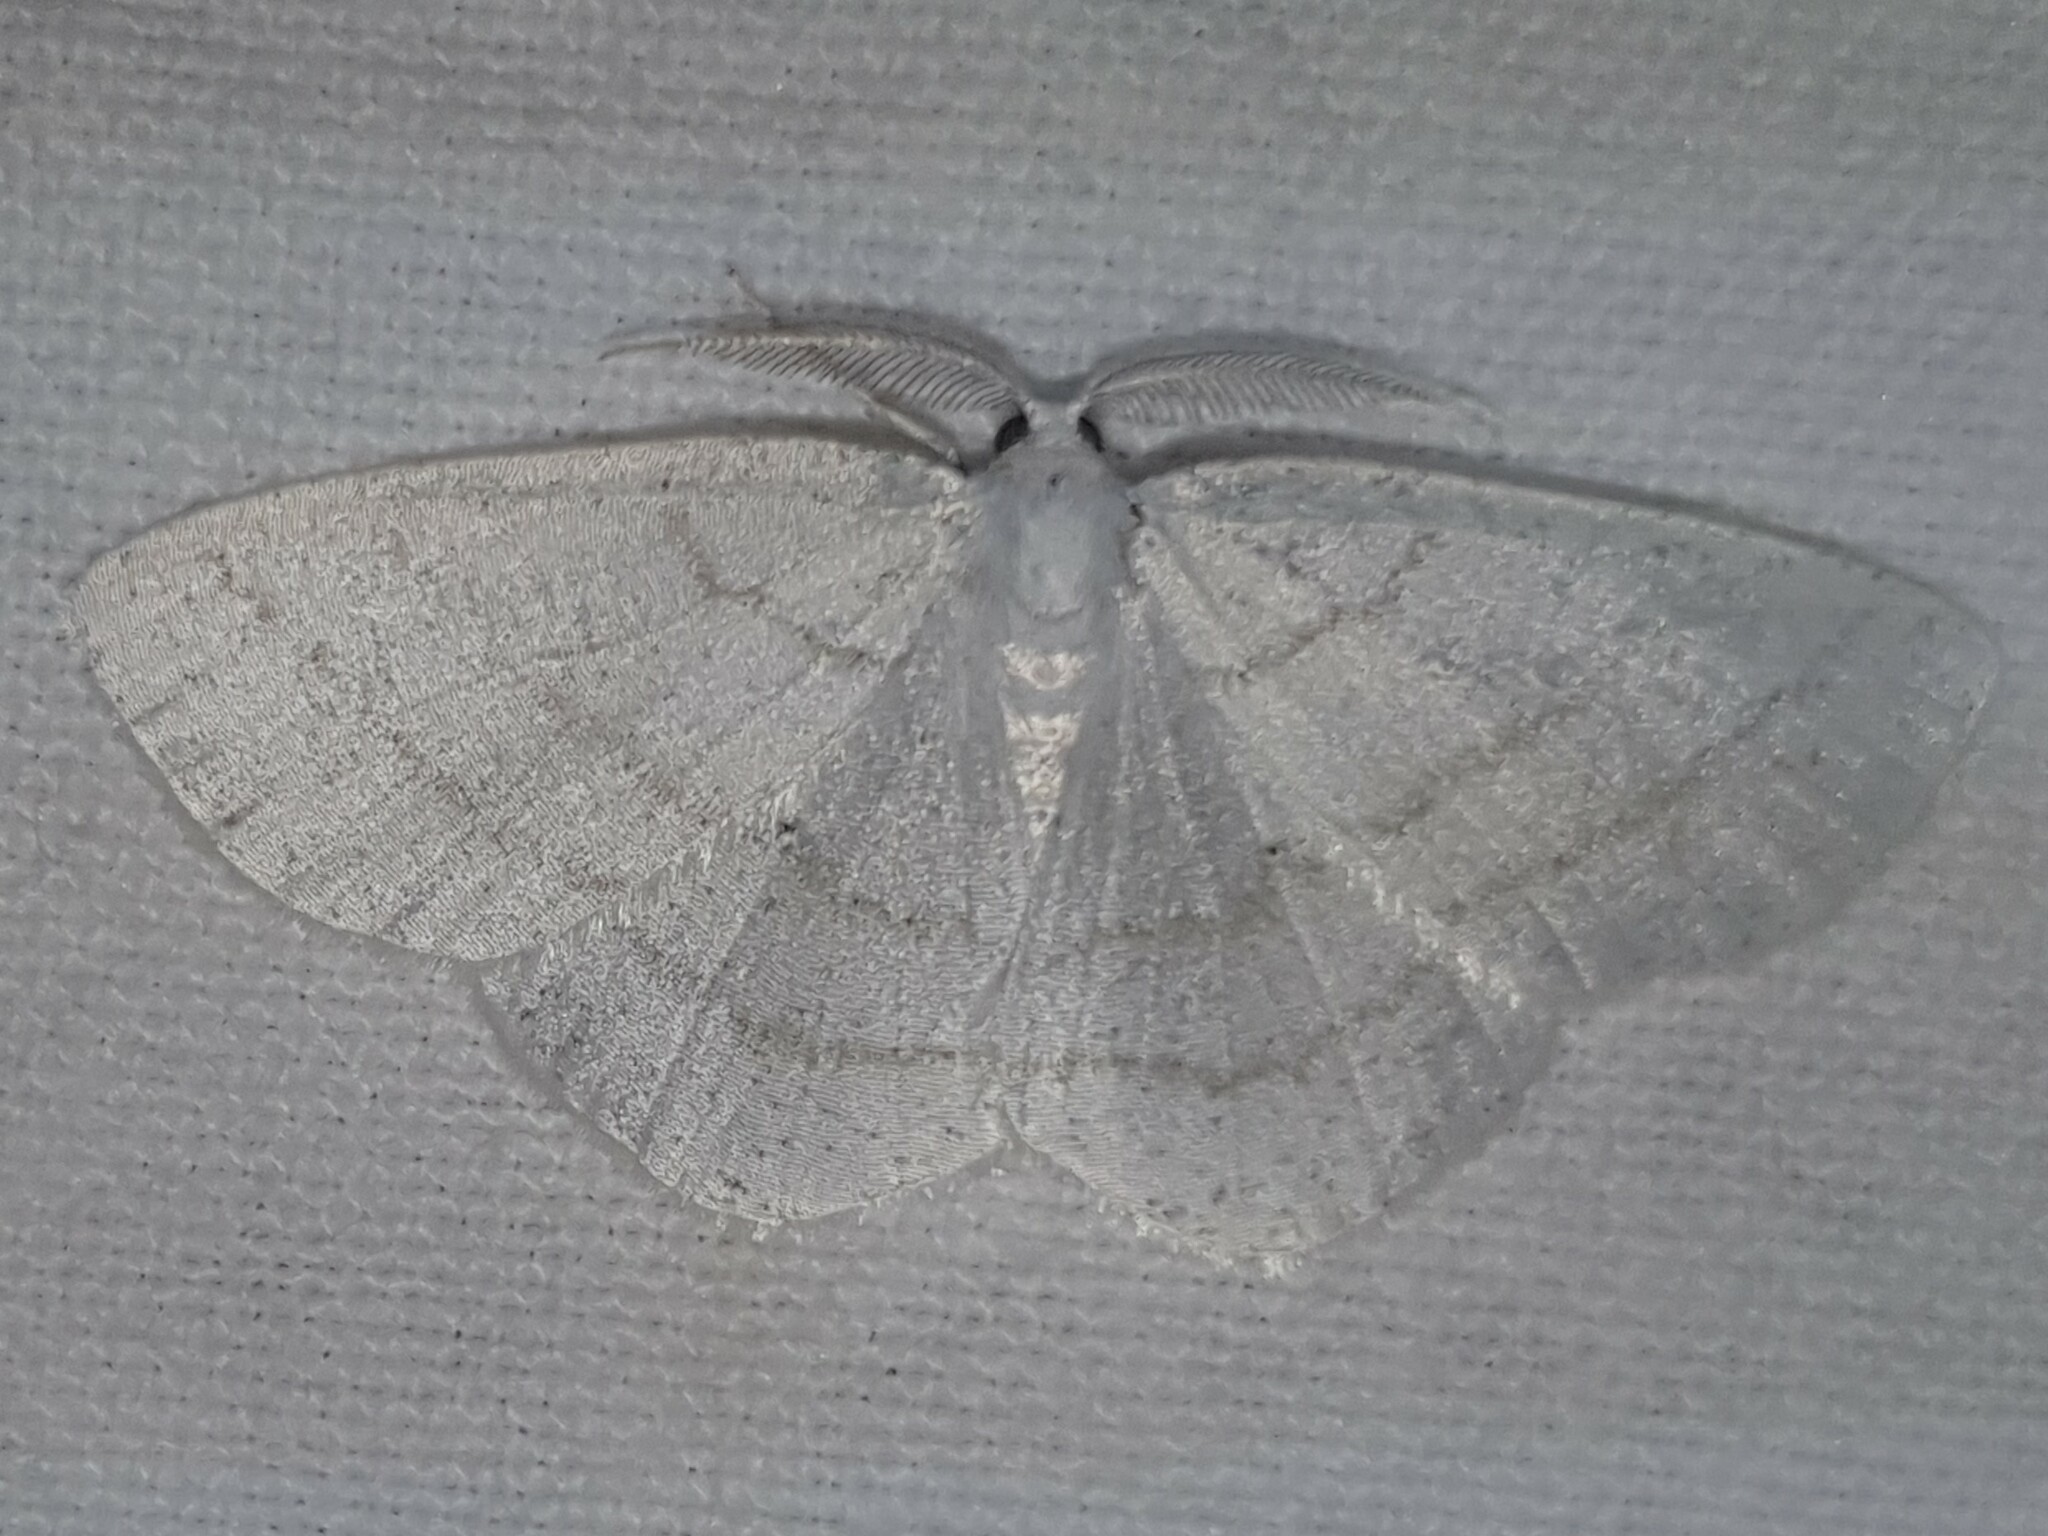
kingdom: Animalia
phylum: Arthropoda
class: Insecta
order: Lepidoptera
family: Geometridae
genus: Cabera
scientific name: Cabera pusaria
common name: Common white wave
